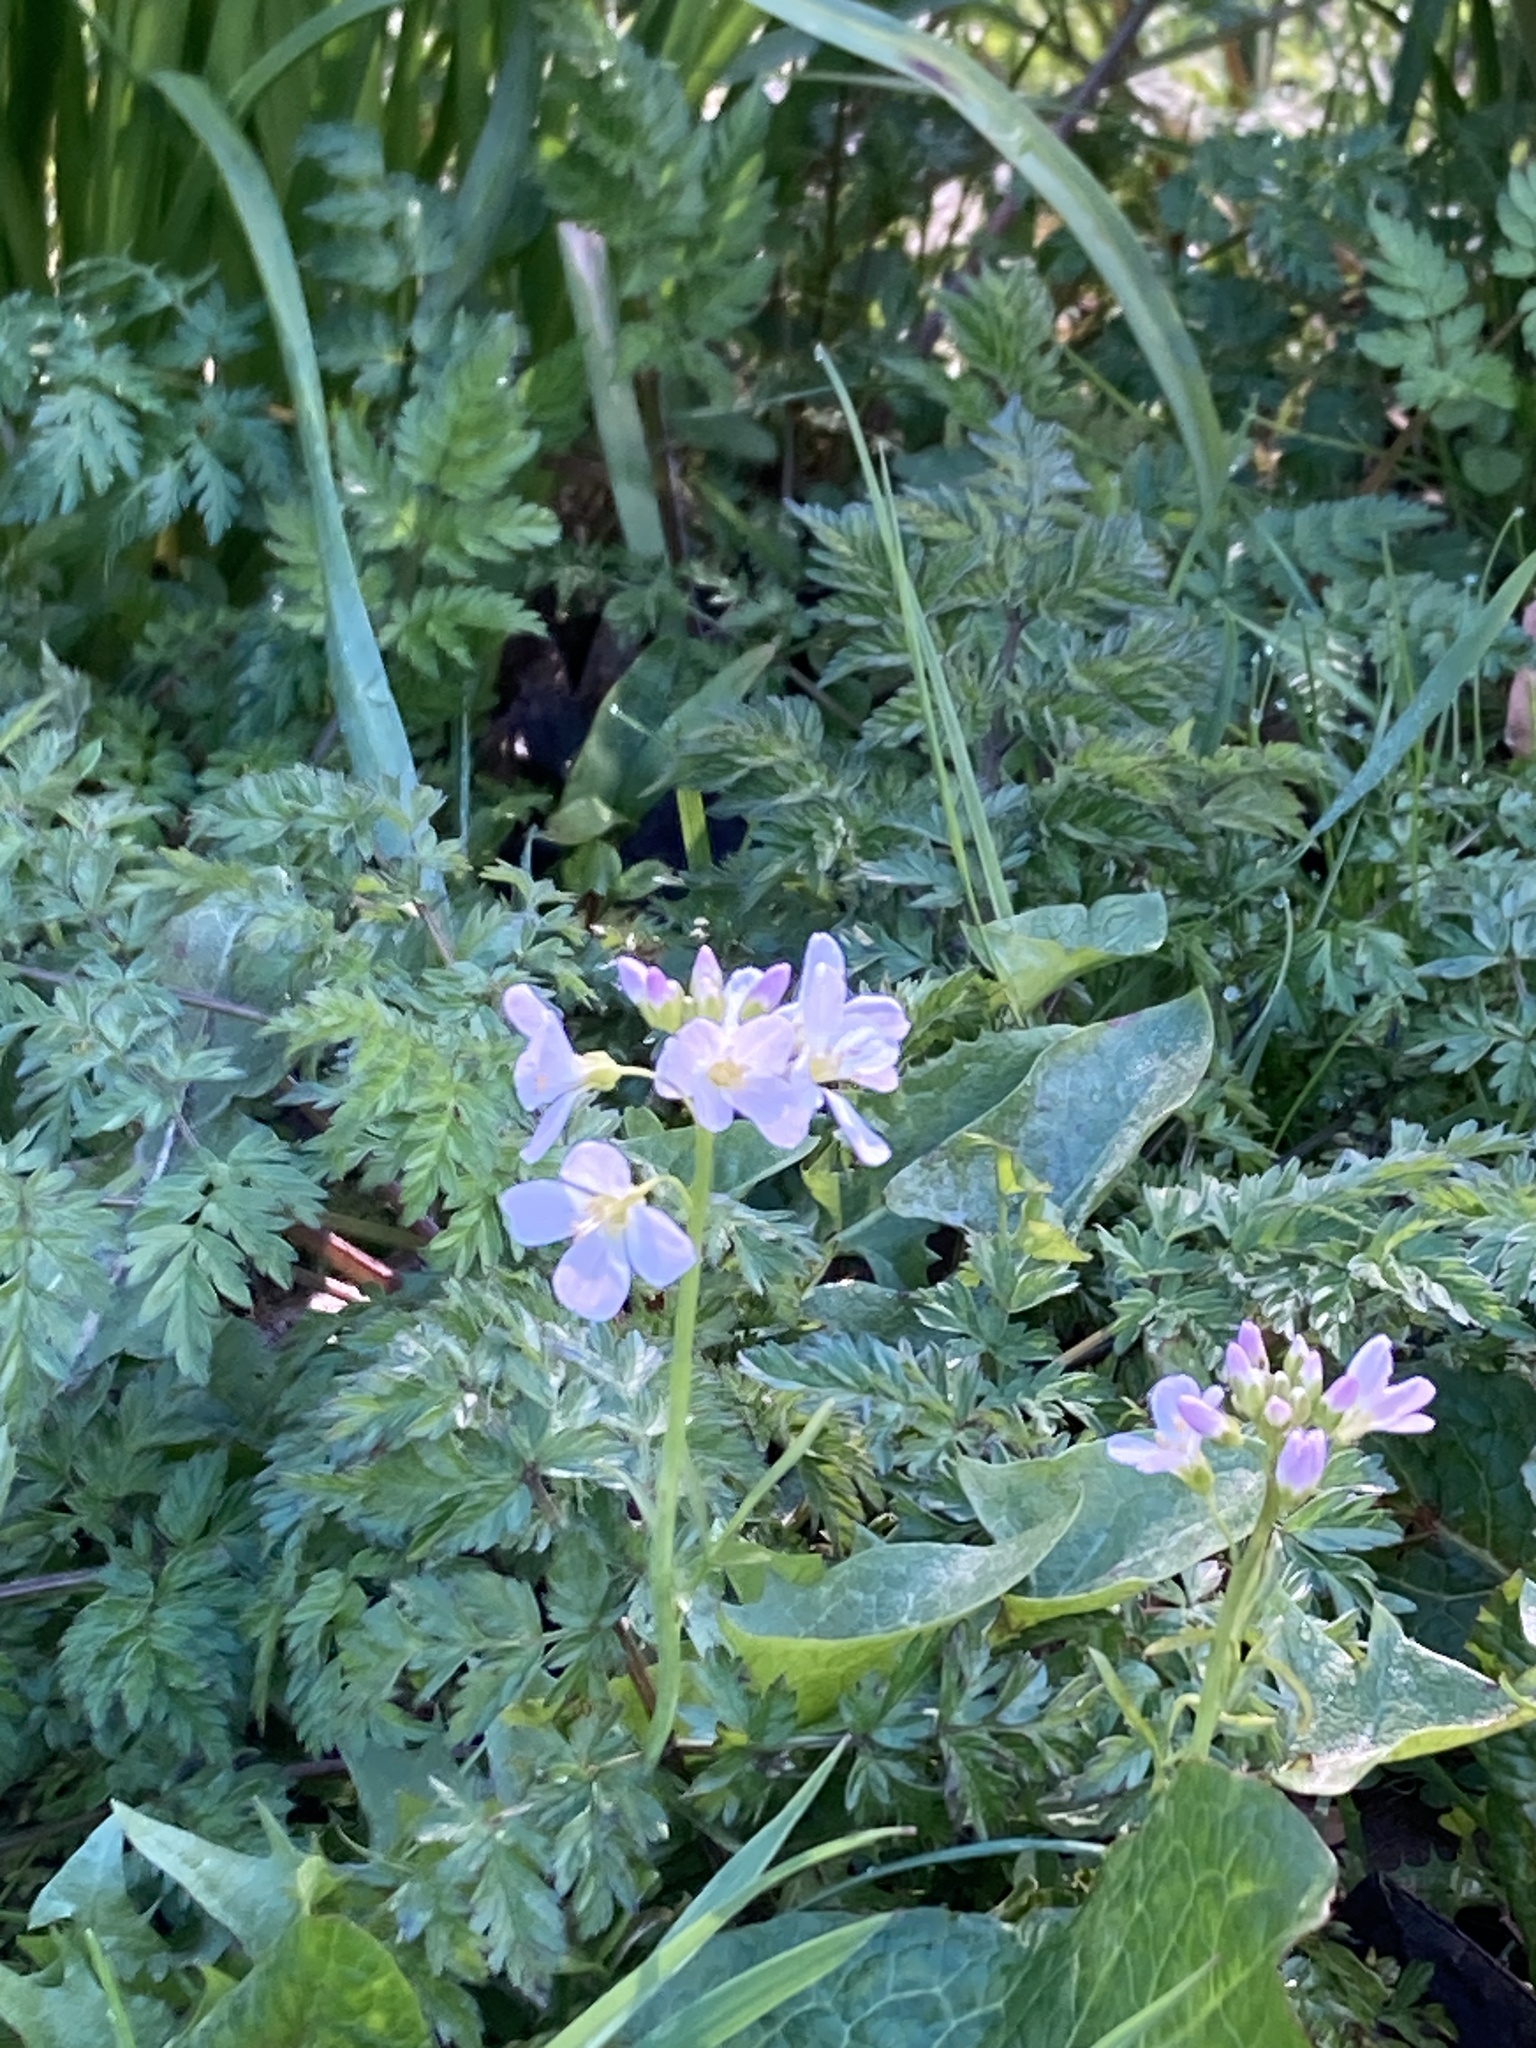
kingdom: Plantae
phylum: Tracheophyta
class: Magnoliopsida
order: Brassicales
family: Brassicaceae
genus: Cardamine
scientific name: Cardamine pratensis
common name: Cuckoo flower
